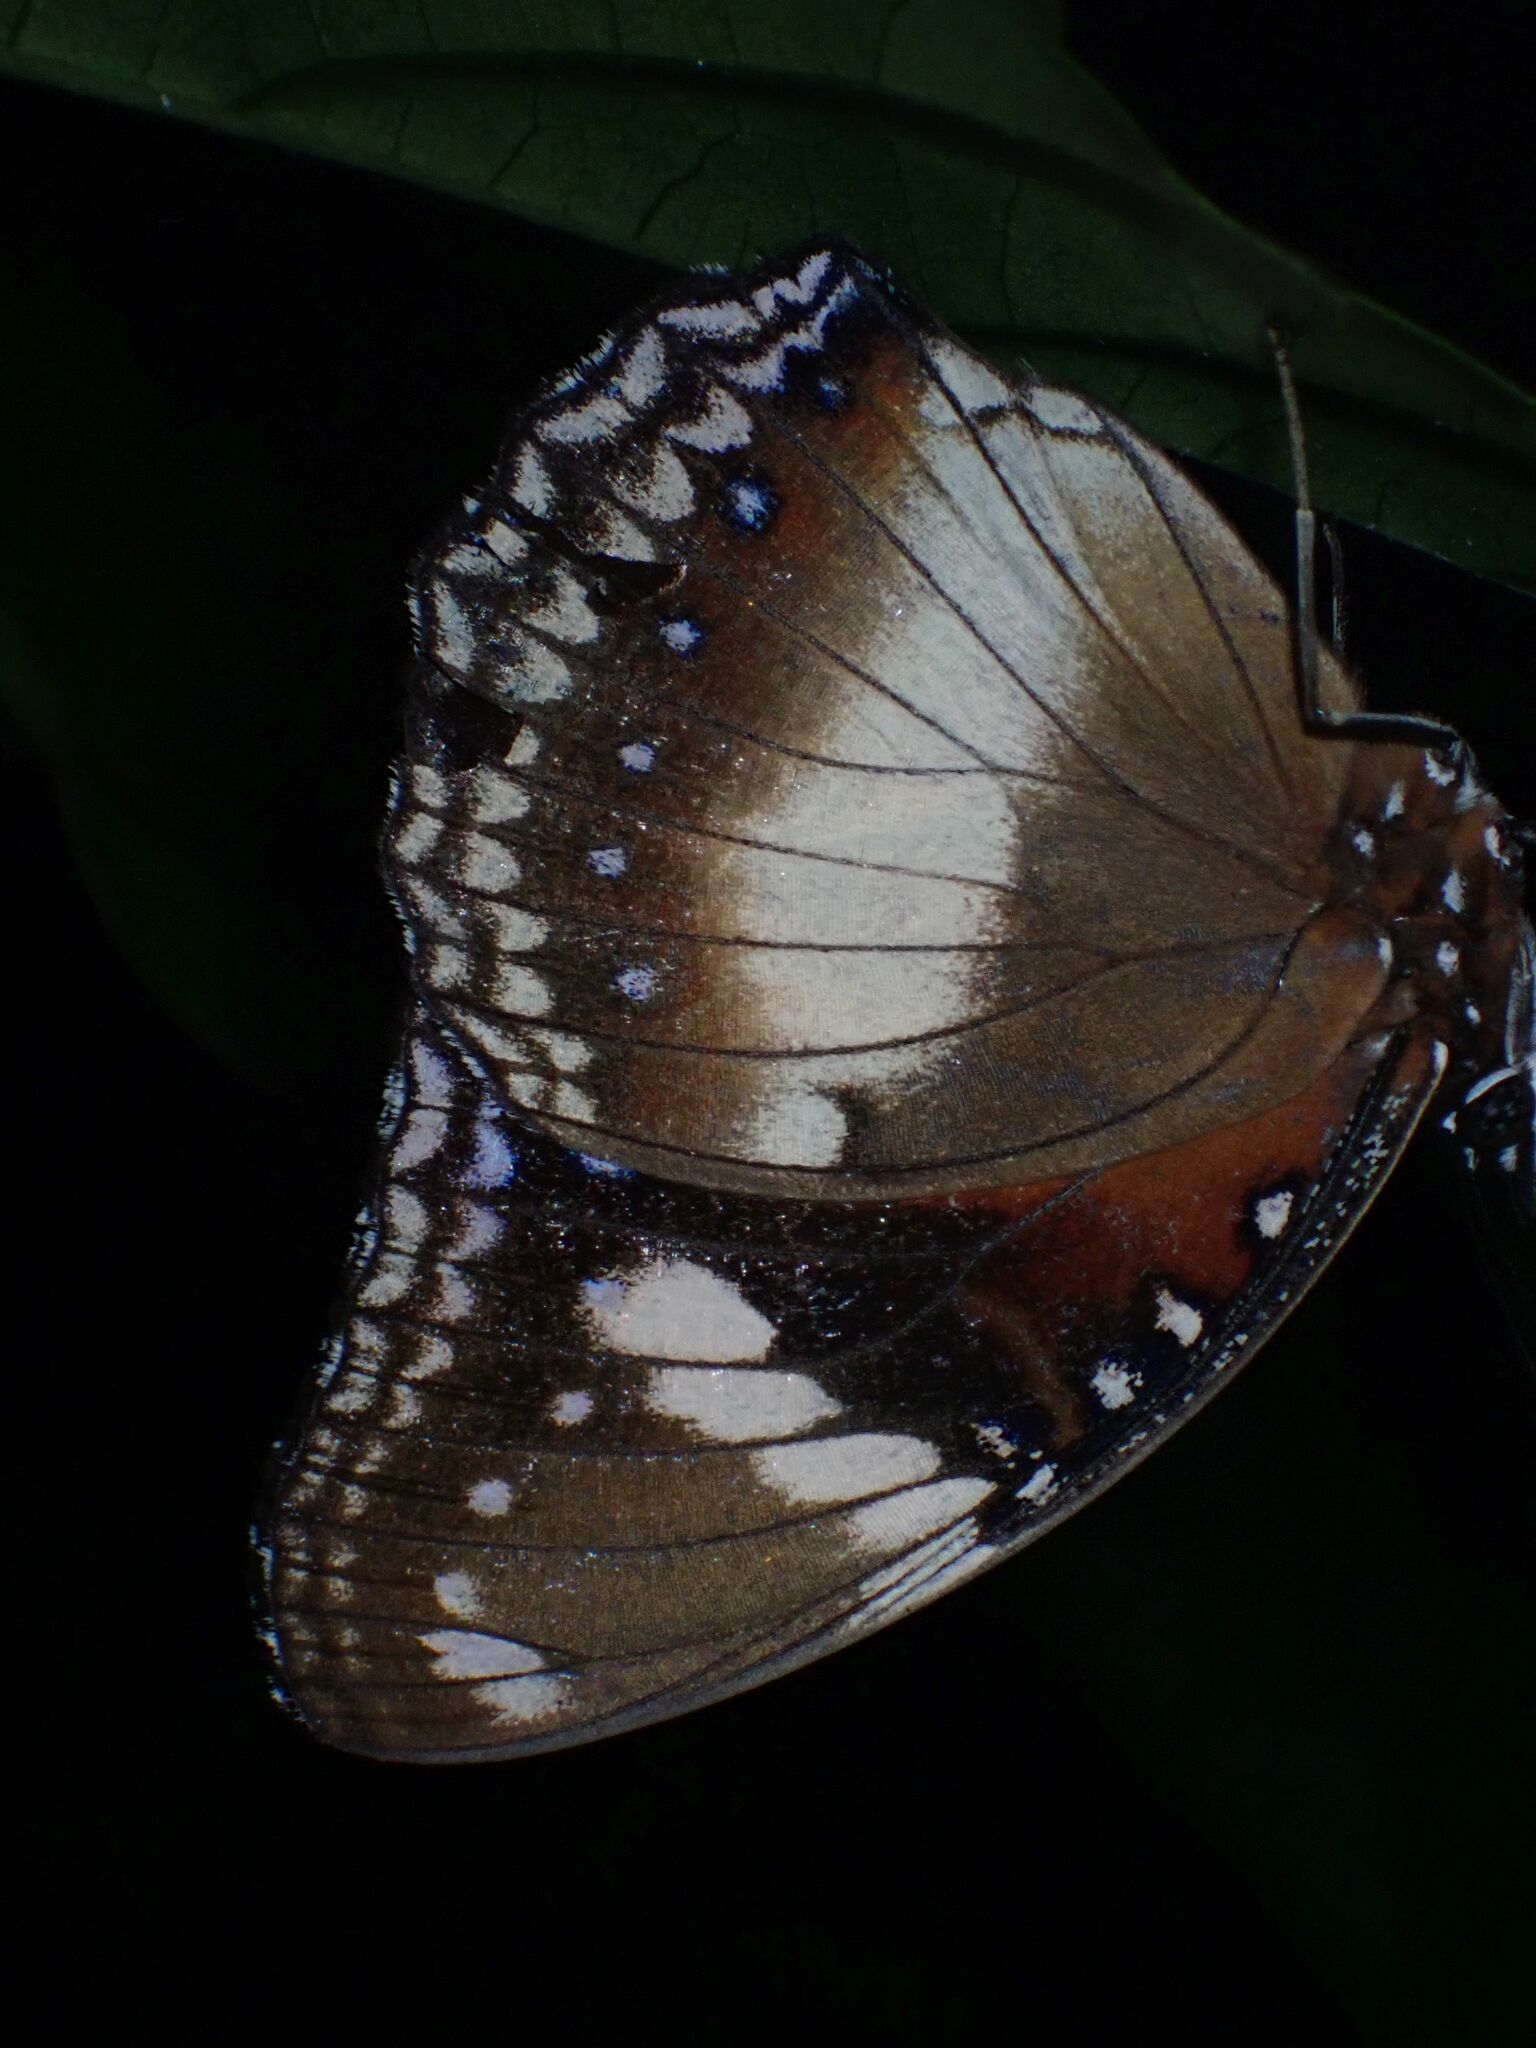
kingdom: Animalia
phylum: Arthropoda
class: Insecta
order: Lepidoptera
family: Nymphalidae
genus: Hypolimnas
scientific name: Hypolimnas bolina
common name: Great eggfly
